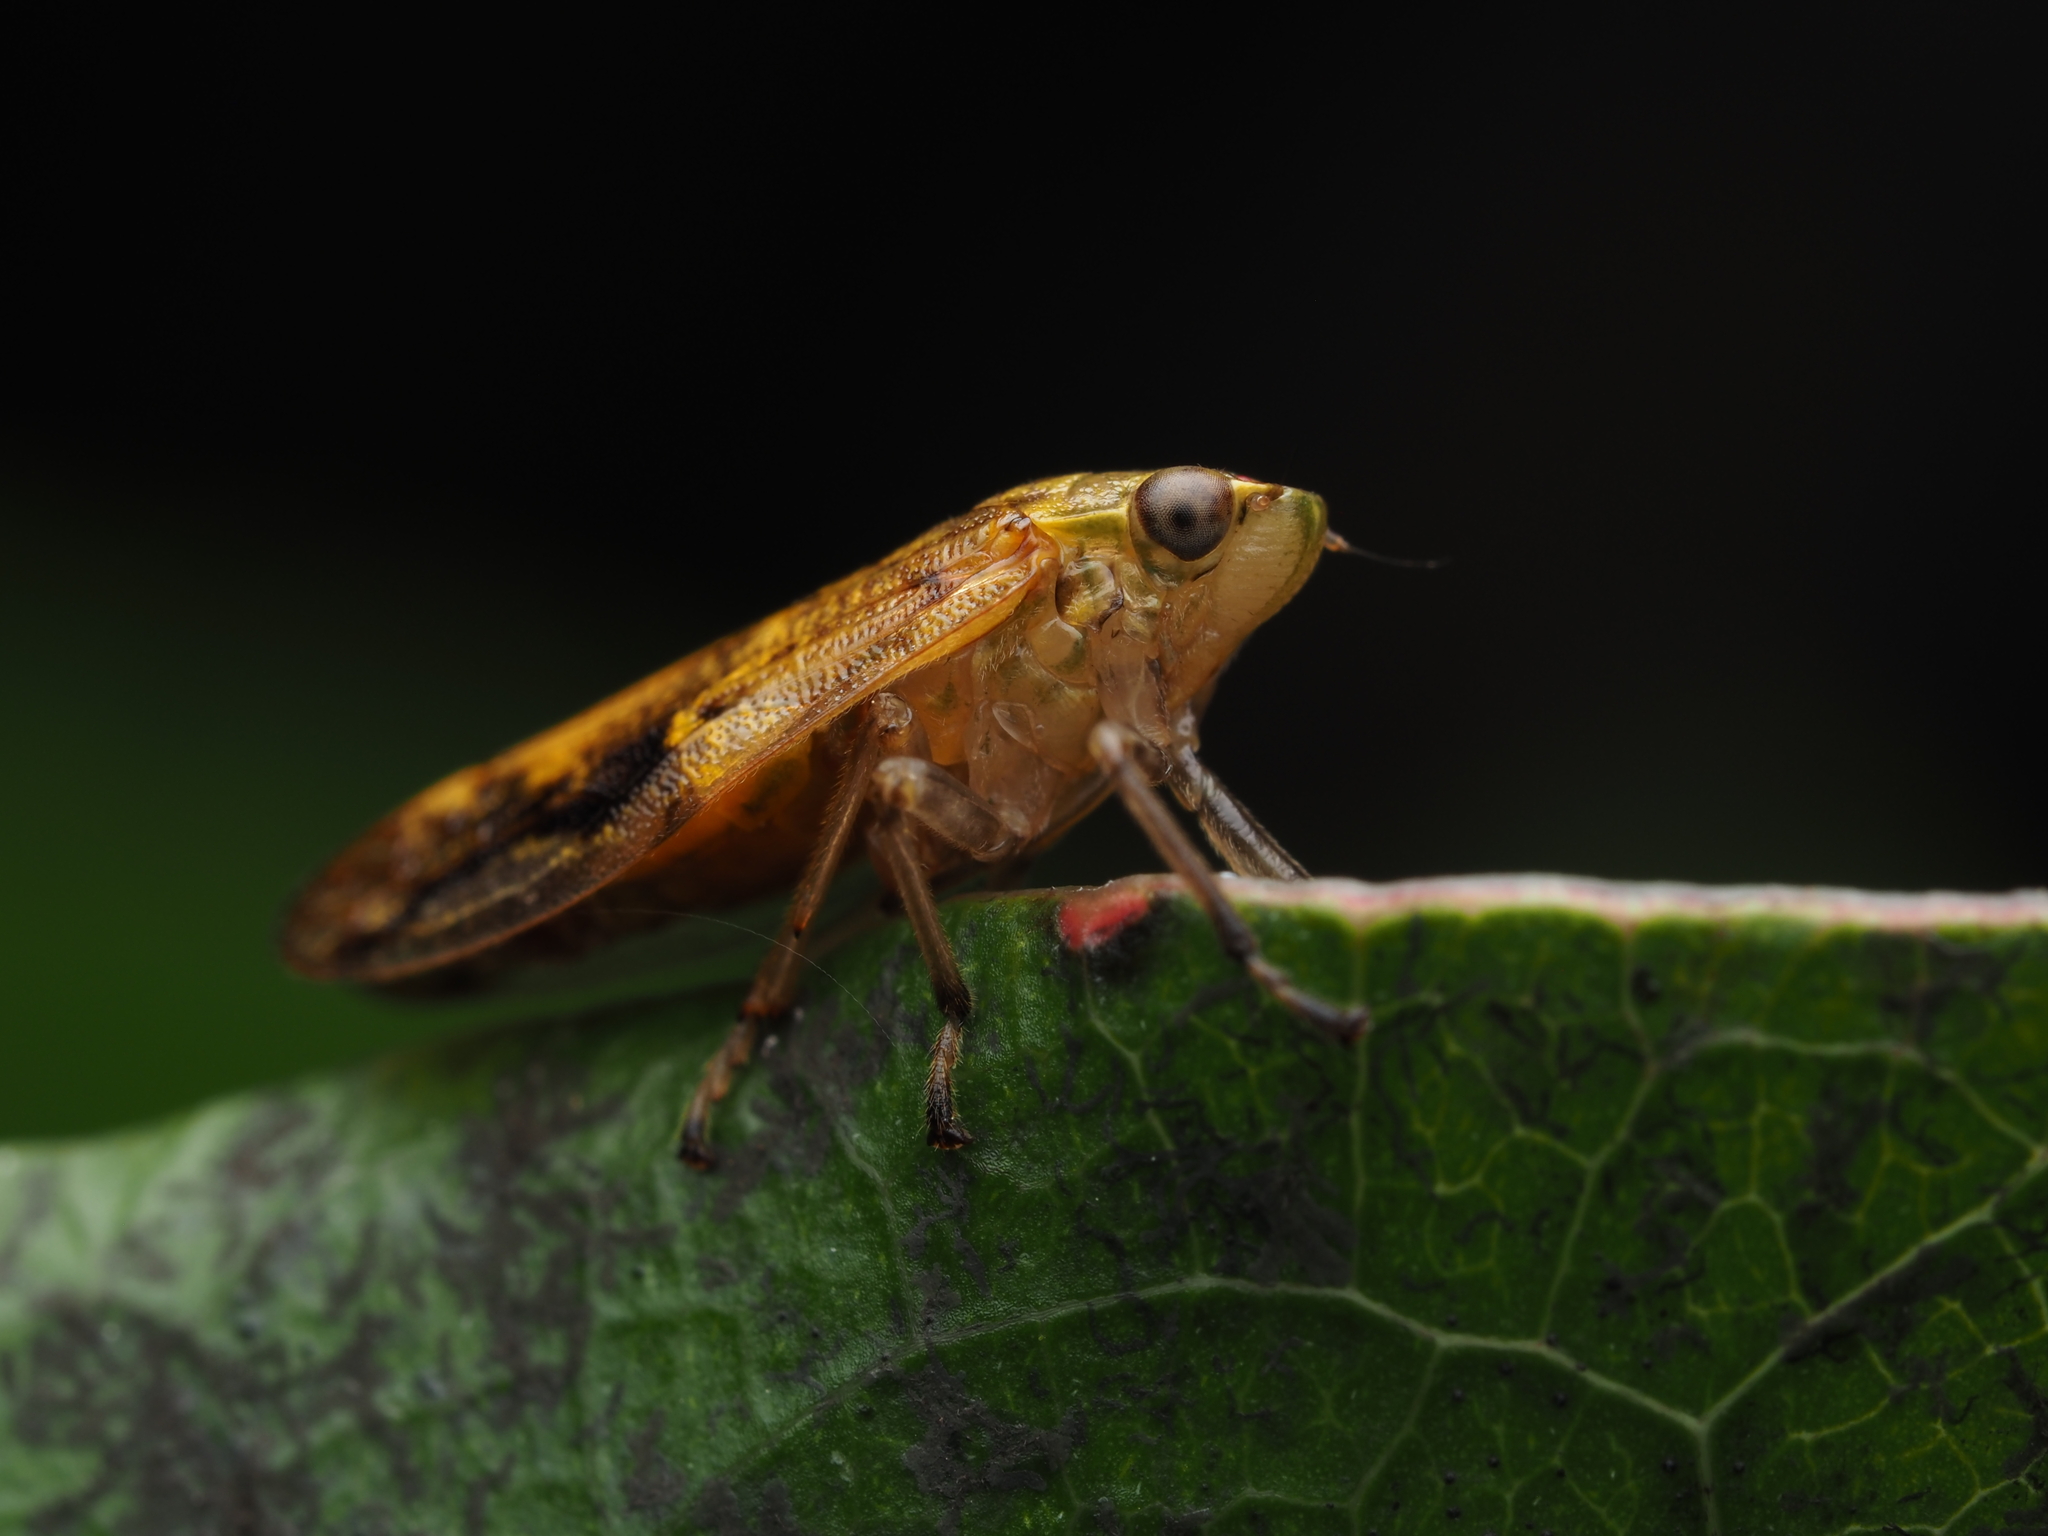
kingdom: Animalia
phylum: Arthropoda
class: Insecta
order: Hemiptera
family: Aphrophoridae
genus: Pseudaphronella
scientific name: Pseudaphronella jactator
